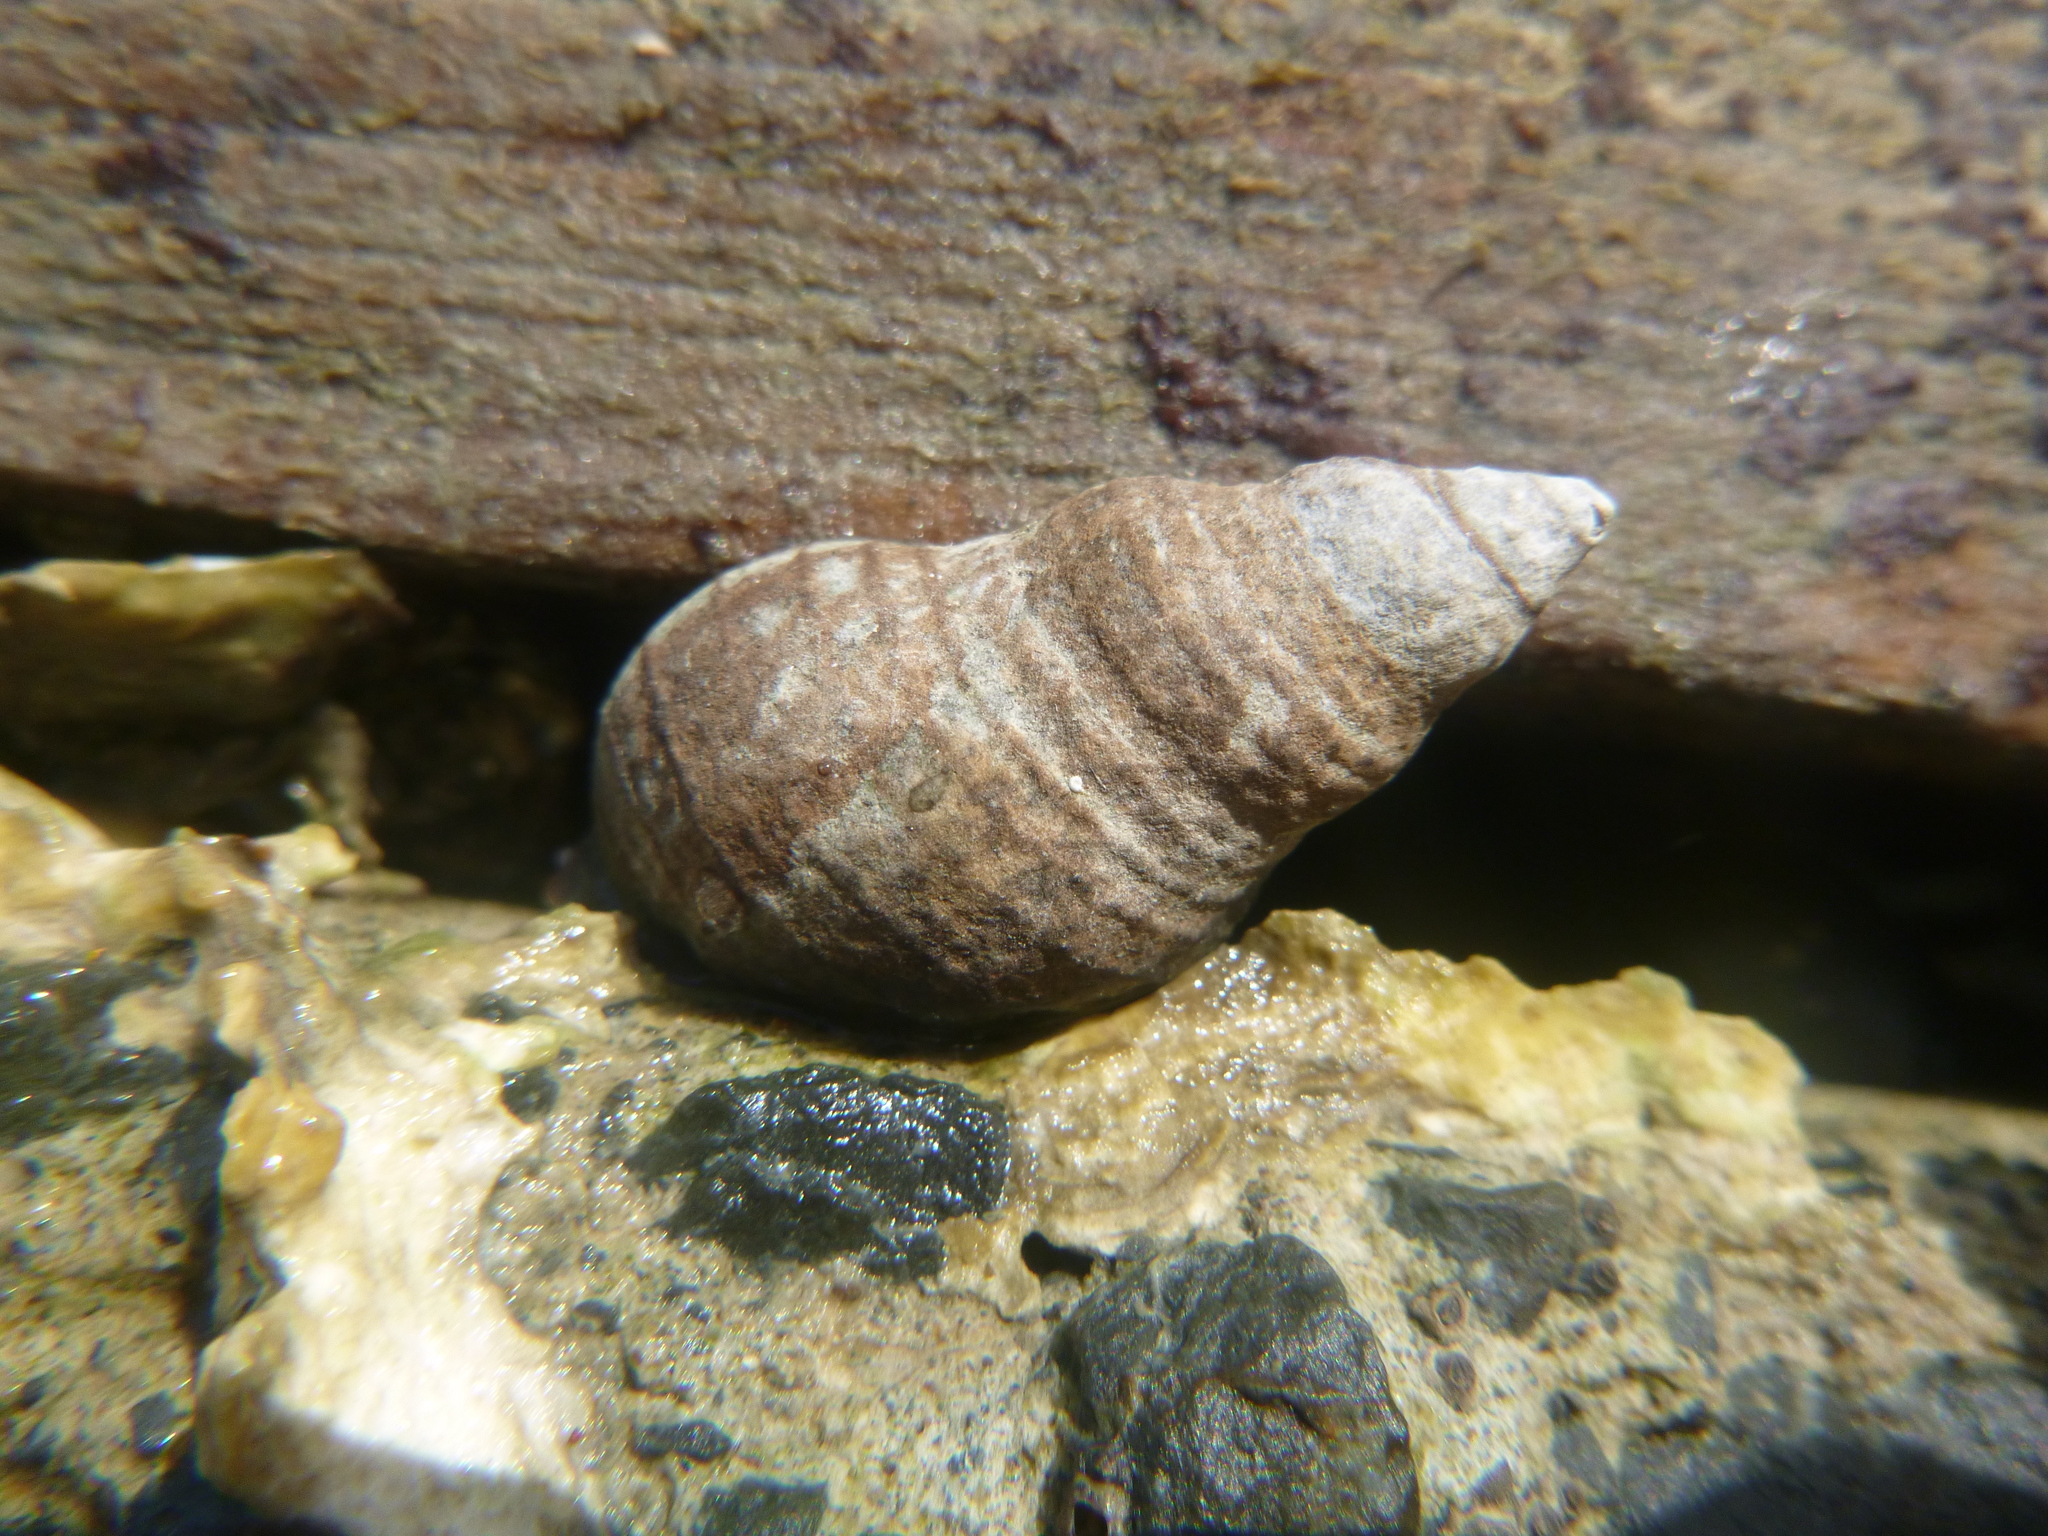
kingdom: Animalia
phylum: Mollusca
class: Gastropoda
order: Neogastropoda
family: Cominellidae
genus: Cominella
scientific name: Cominella virgata
